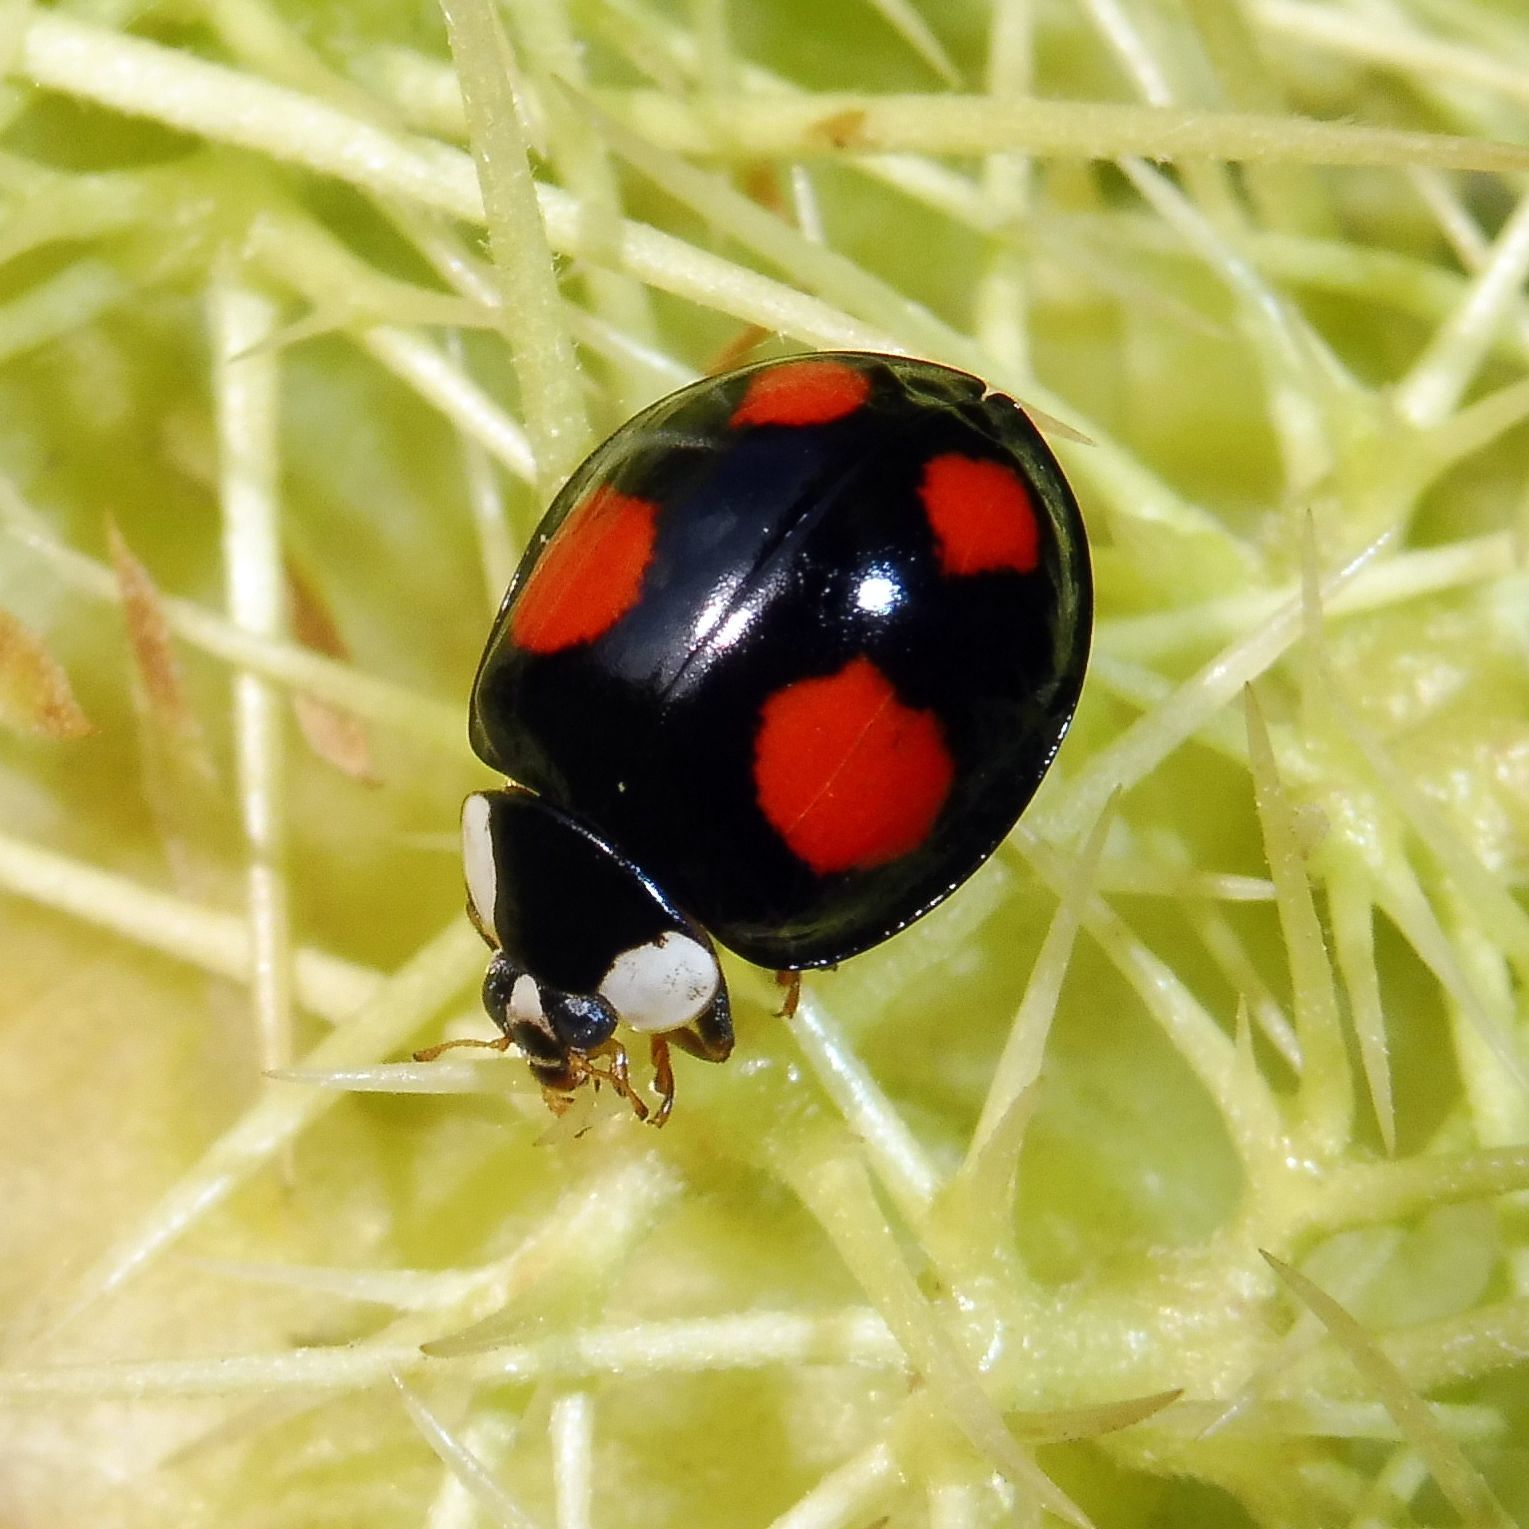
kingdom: Animalia
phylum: Arthropoda
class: Insecta
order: Coleoptera
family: Coccinellidae
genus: Harmonia
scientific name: Harmonia axyridis
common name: Harlequin ladybird
